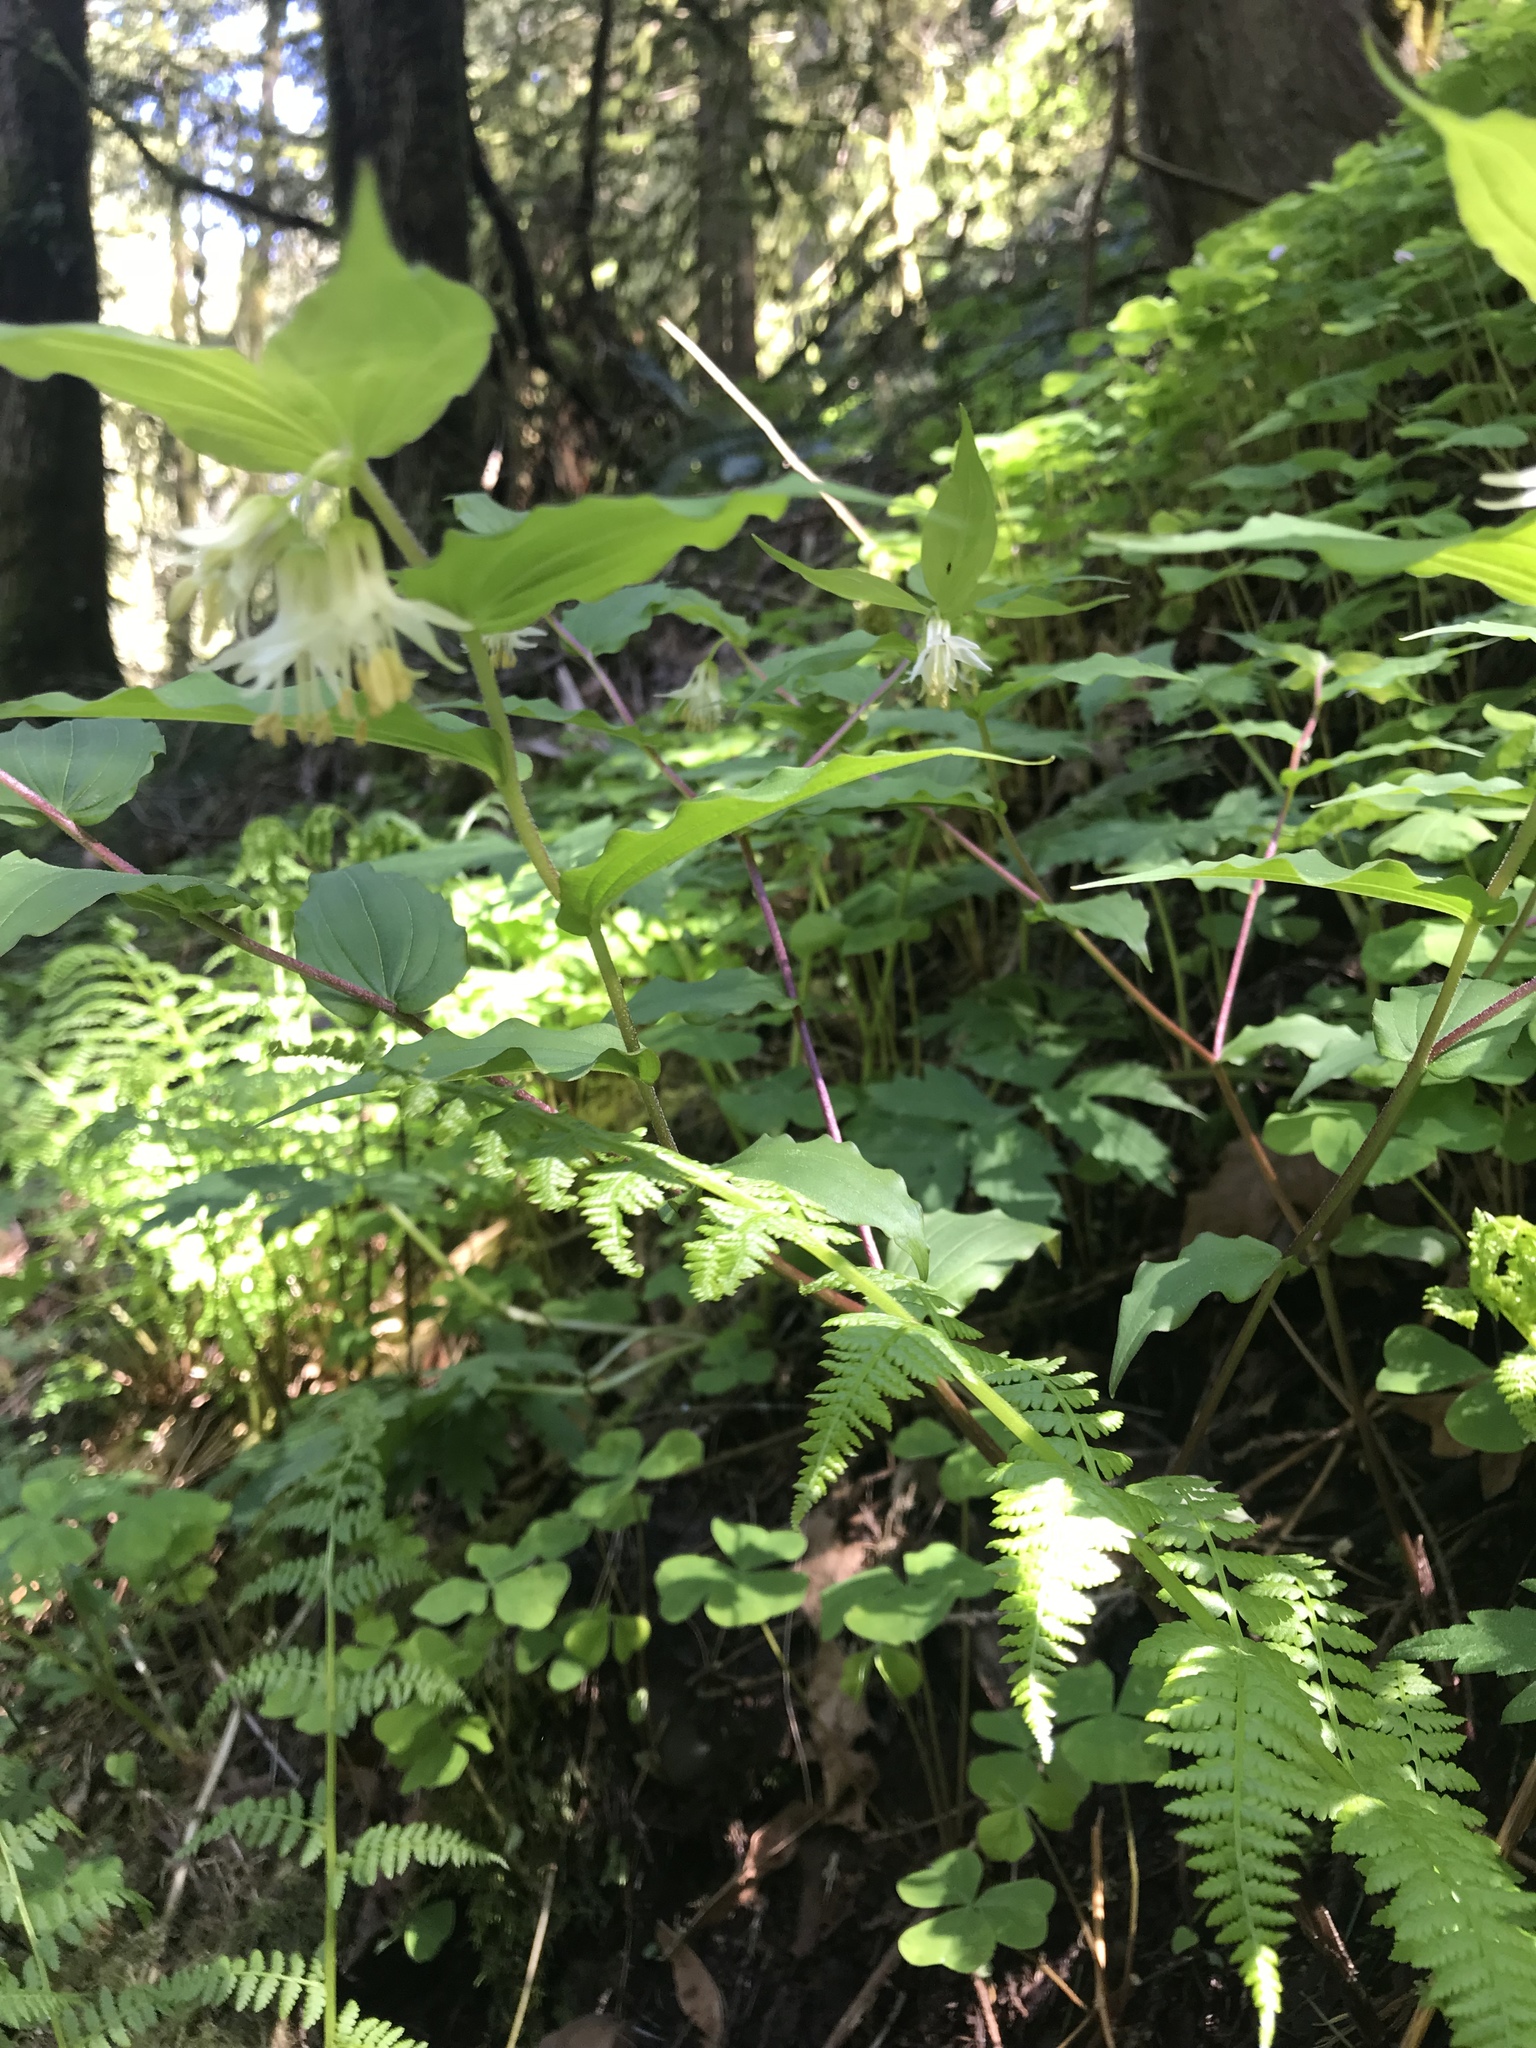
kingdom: Plantae
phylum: Tracheophyta
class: Liliopsida
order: Liliales
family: Liliaceae
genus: Prosartes
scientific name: Prosartes hookeri
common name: Fairy-bells
